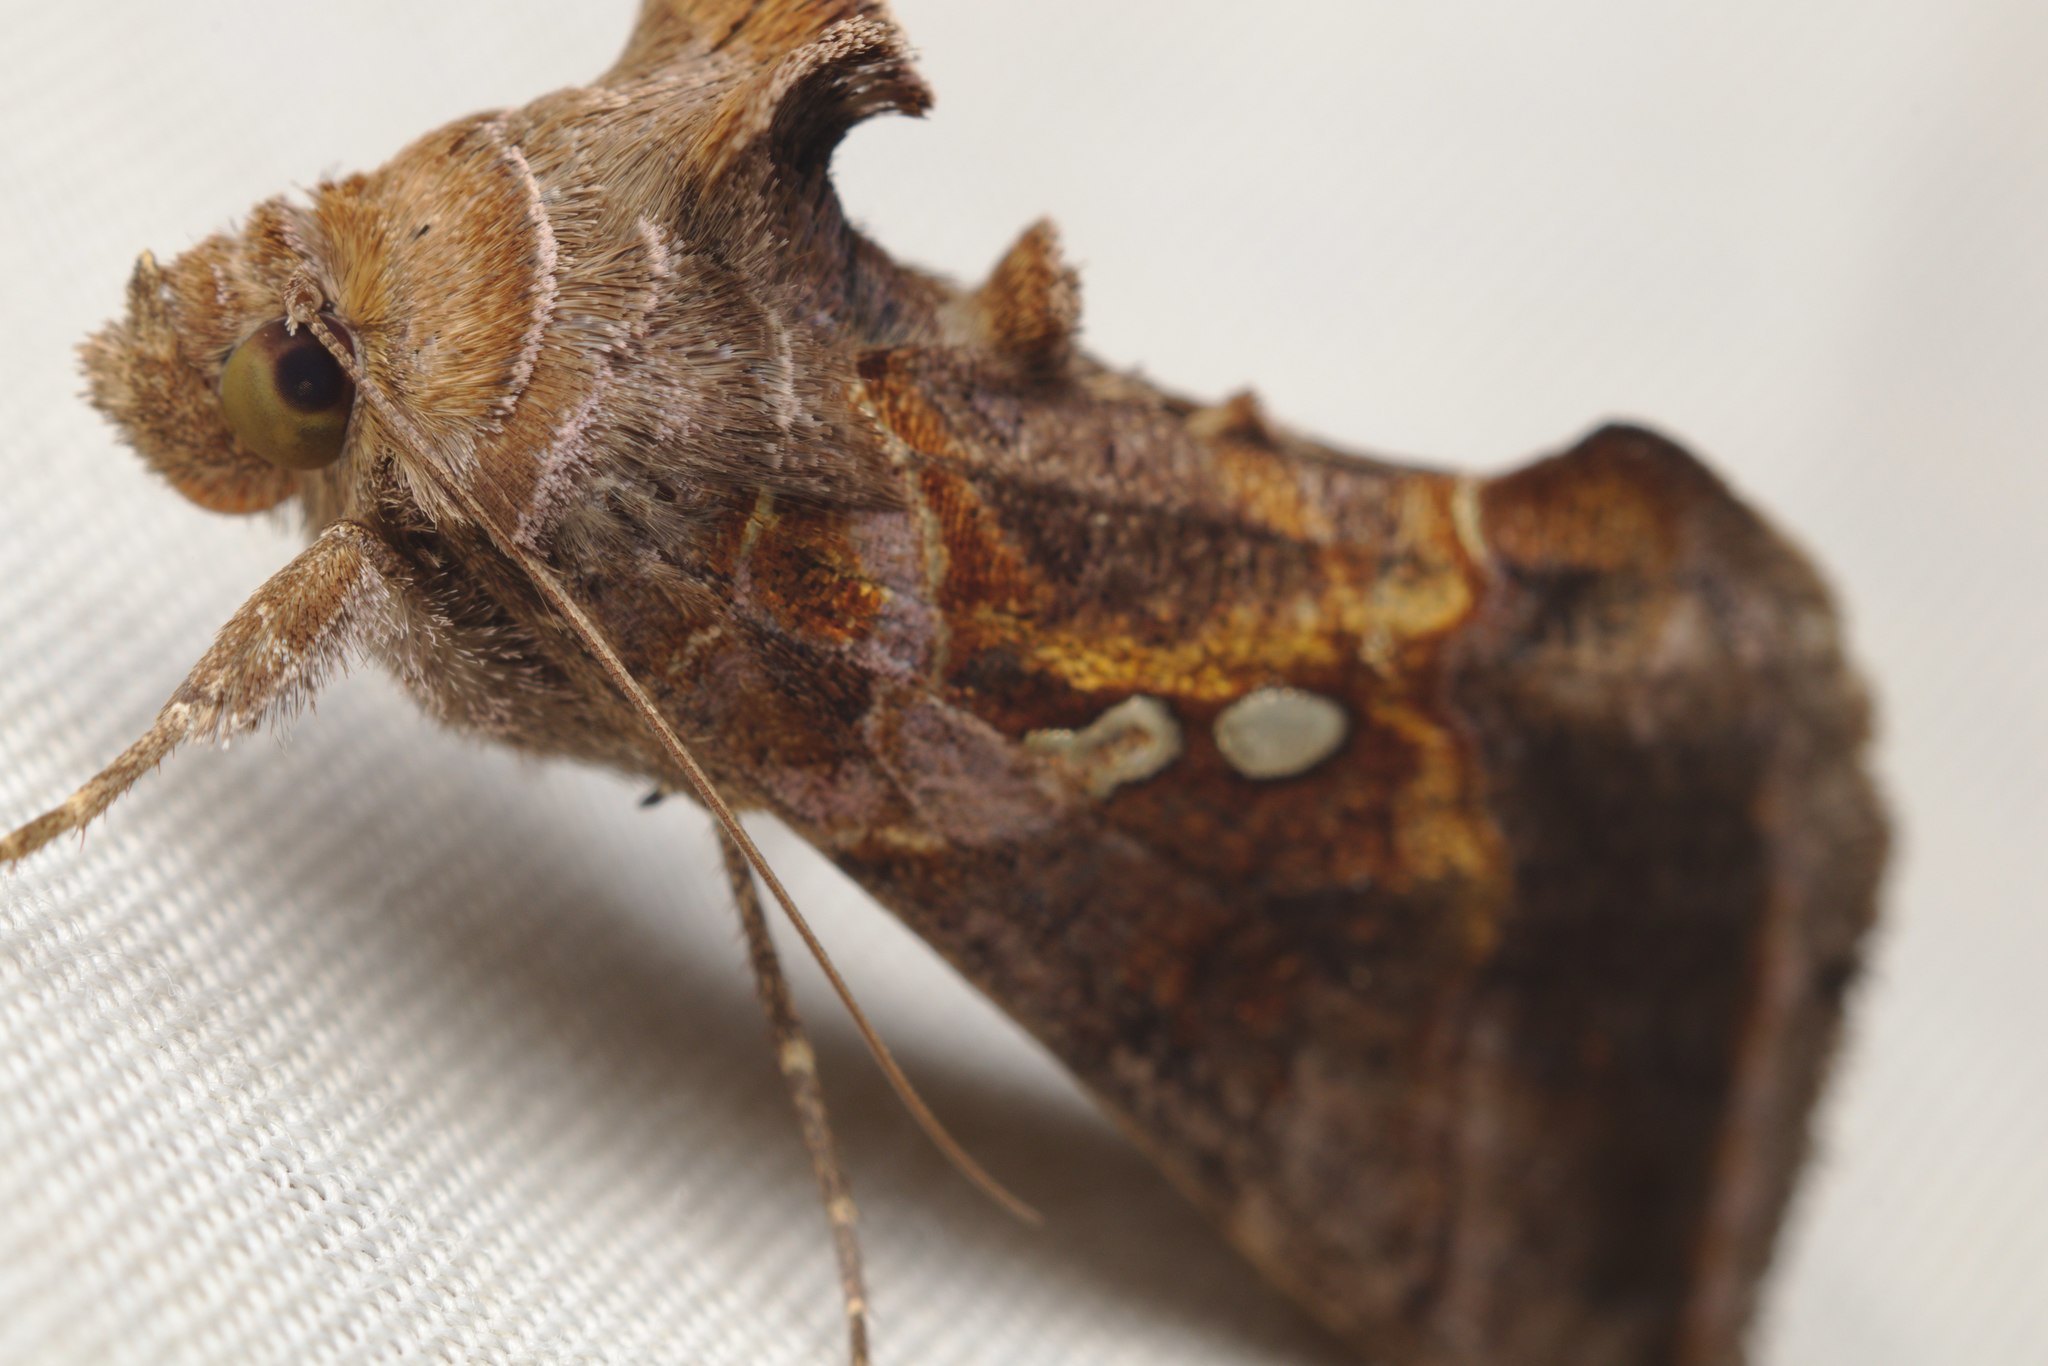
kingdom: Animalia
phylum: Arthropoda
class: Insecta
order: Lepidoptera
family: Noctuidae
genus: Chrysodeixis
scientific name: Chrysodeixis eriosoma
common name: Green garden looper
